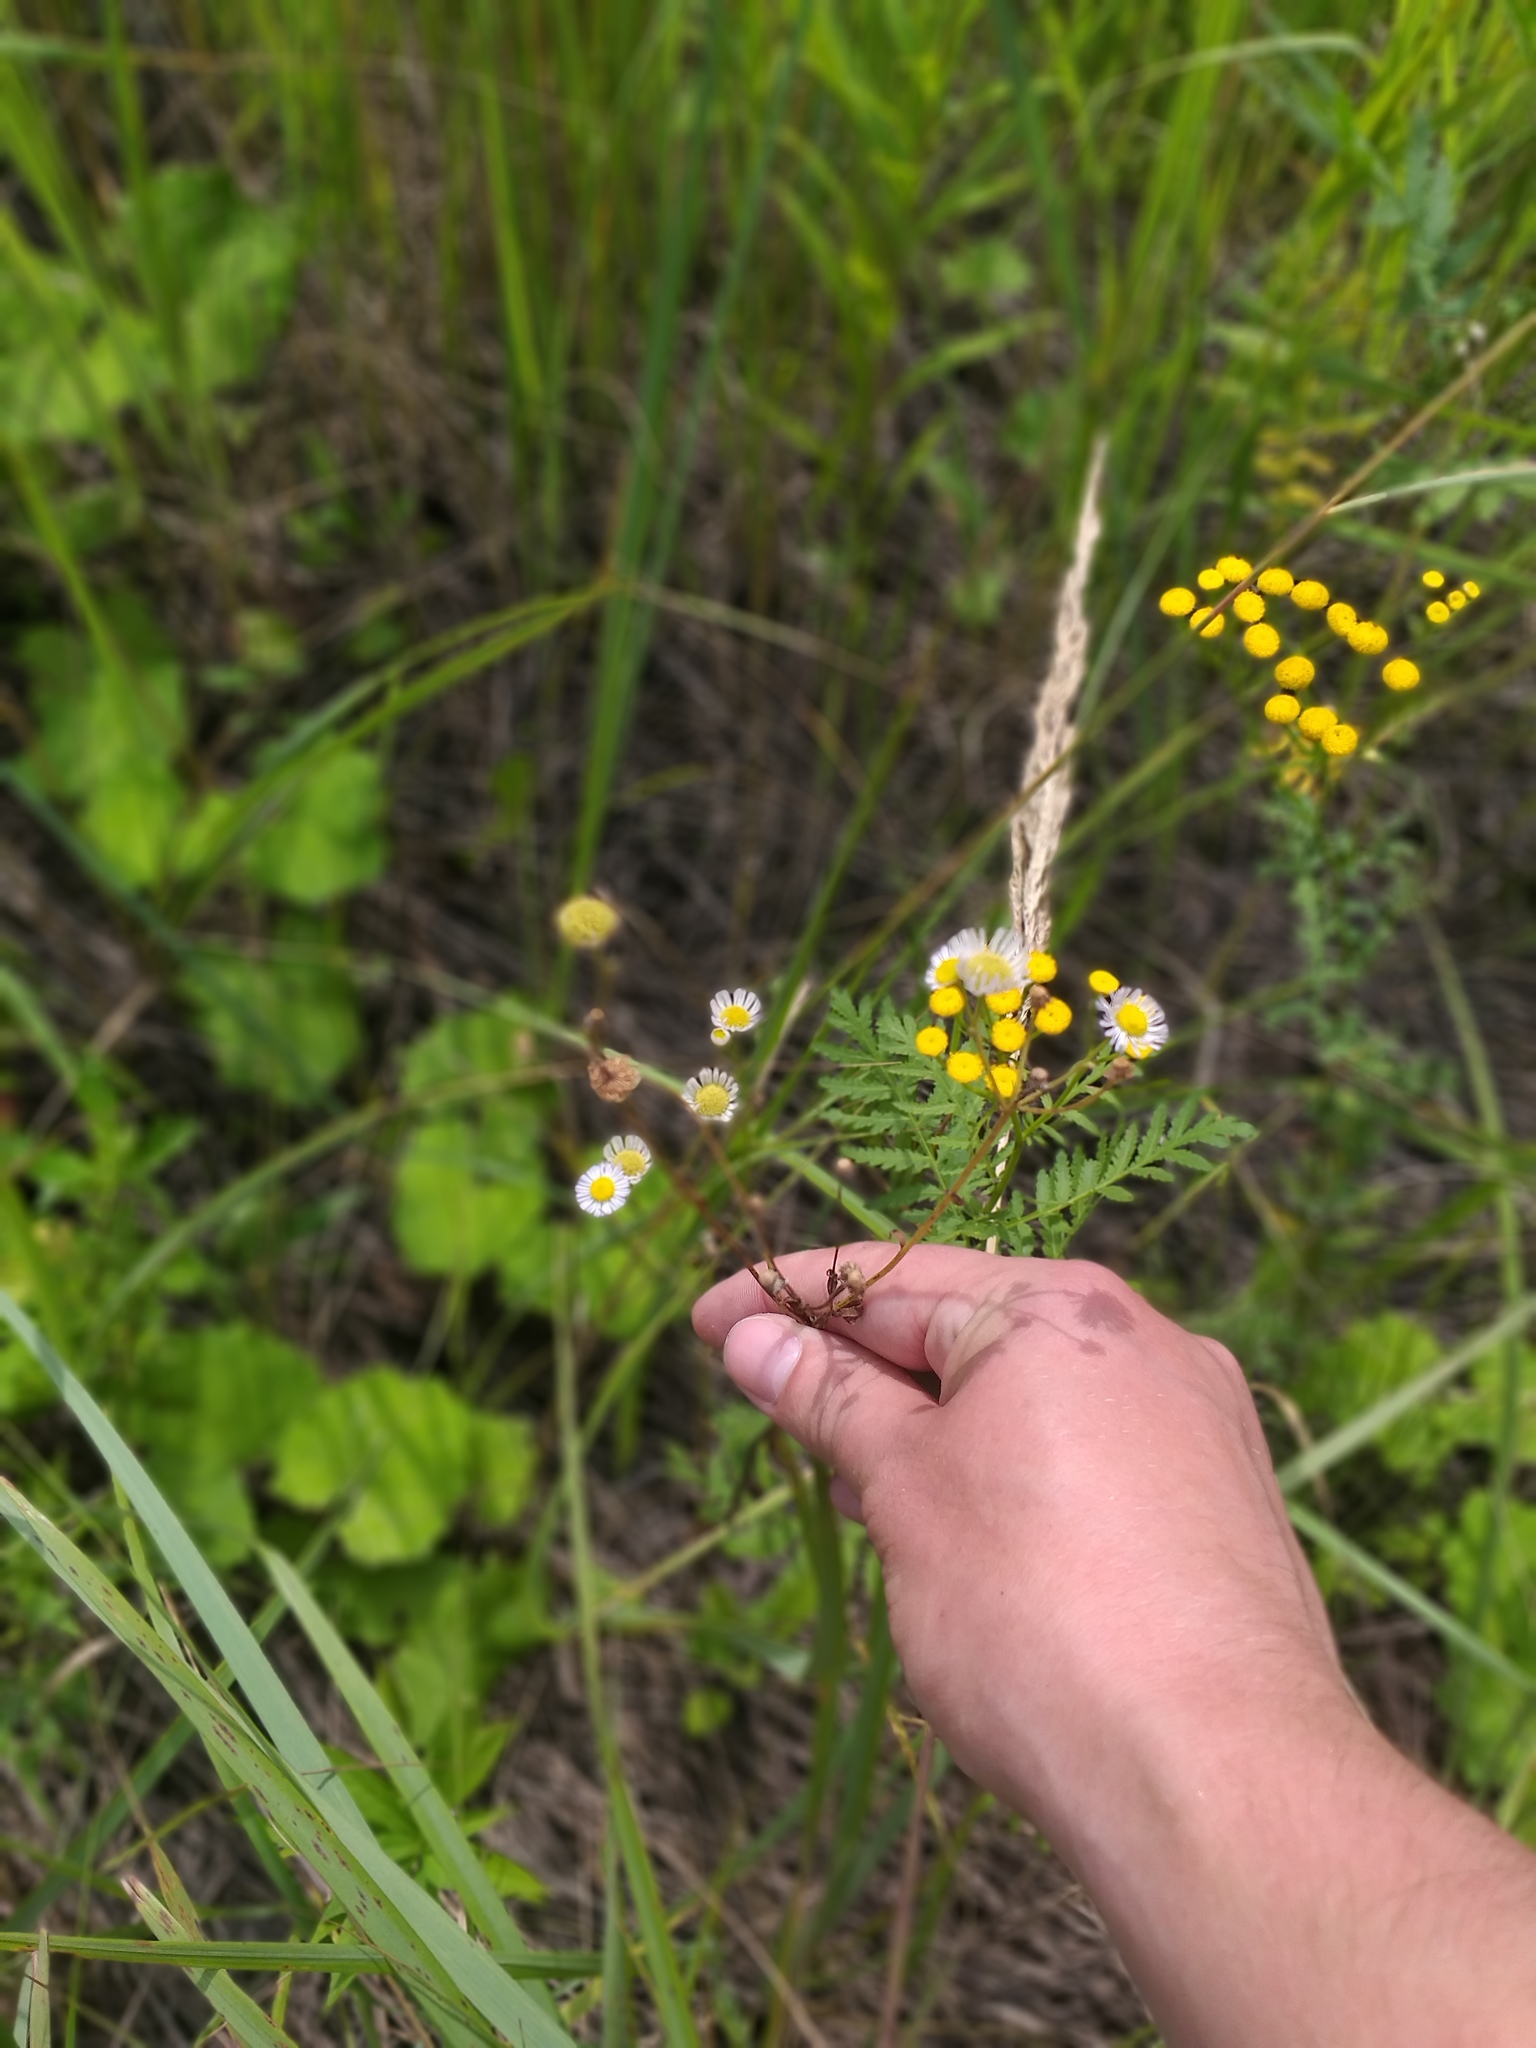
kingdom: Plantae
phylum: Tracheophyta
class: Magnoliopsida
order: Asterales
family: Asteraceae
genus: Erigeron
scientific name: Erigeron annuus
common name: Tall fleabane
